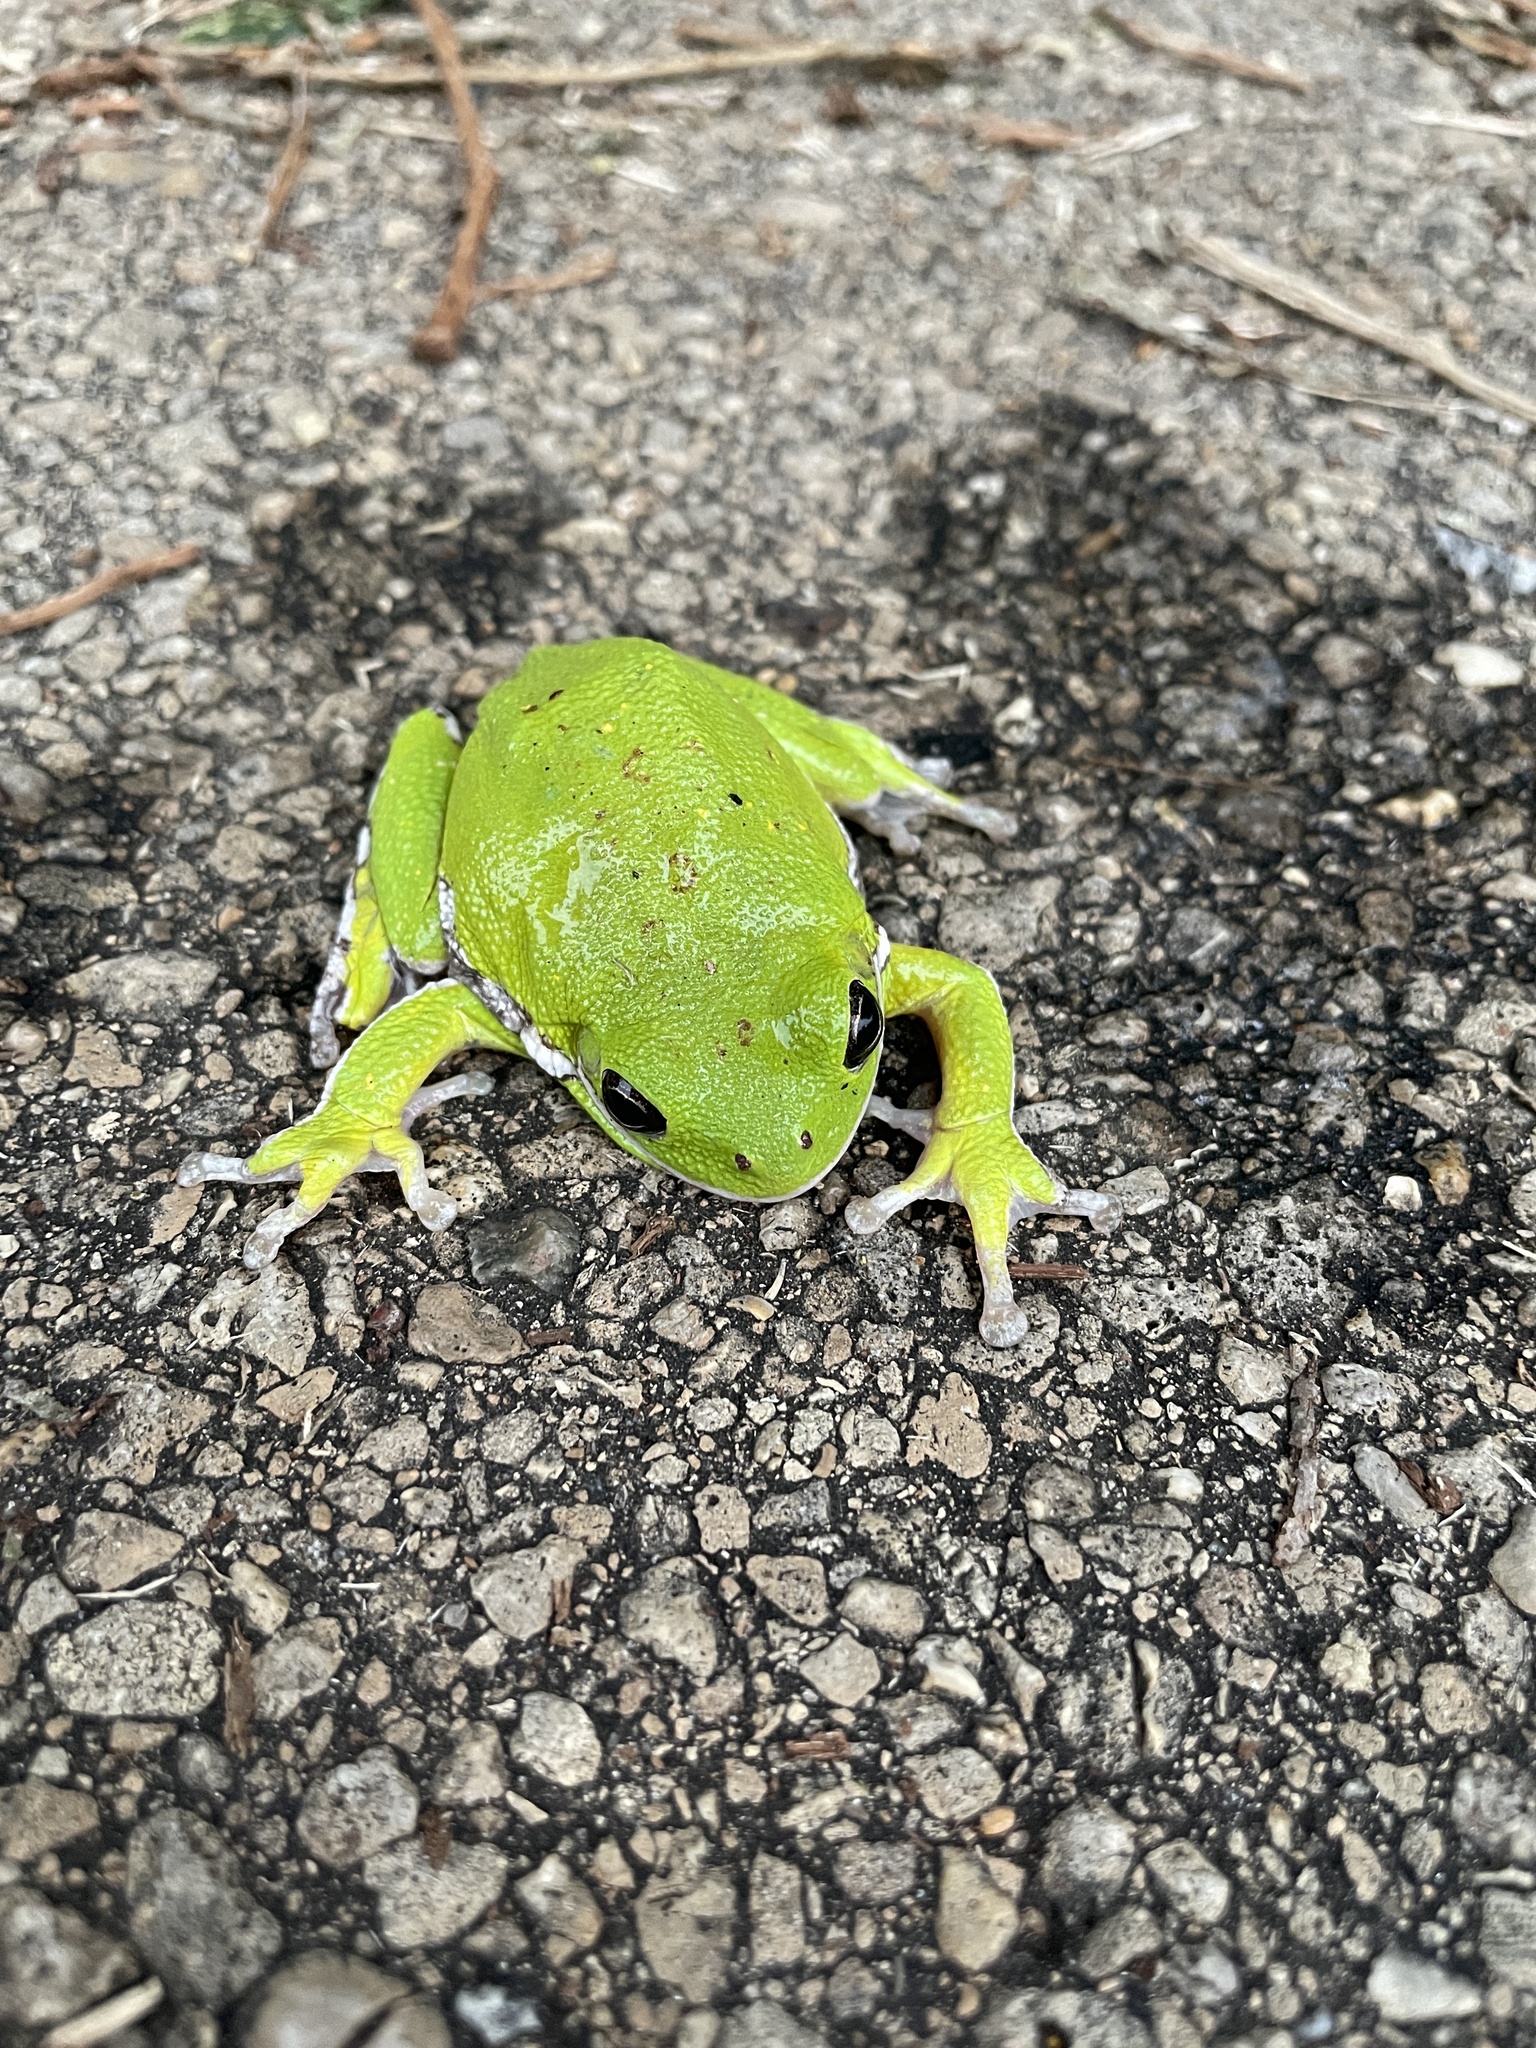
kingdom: Animalia
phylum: Chordata
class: Amphibia
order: Anura
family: Hylidae
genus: Dryophytes
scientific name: Dryophytes gratiosus
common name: Barking treefrog
